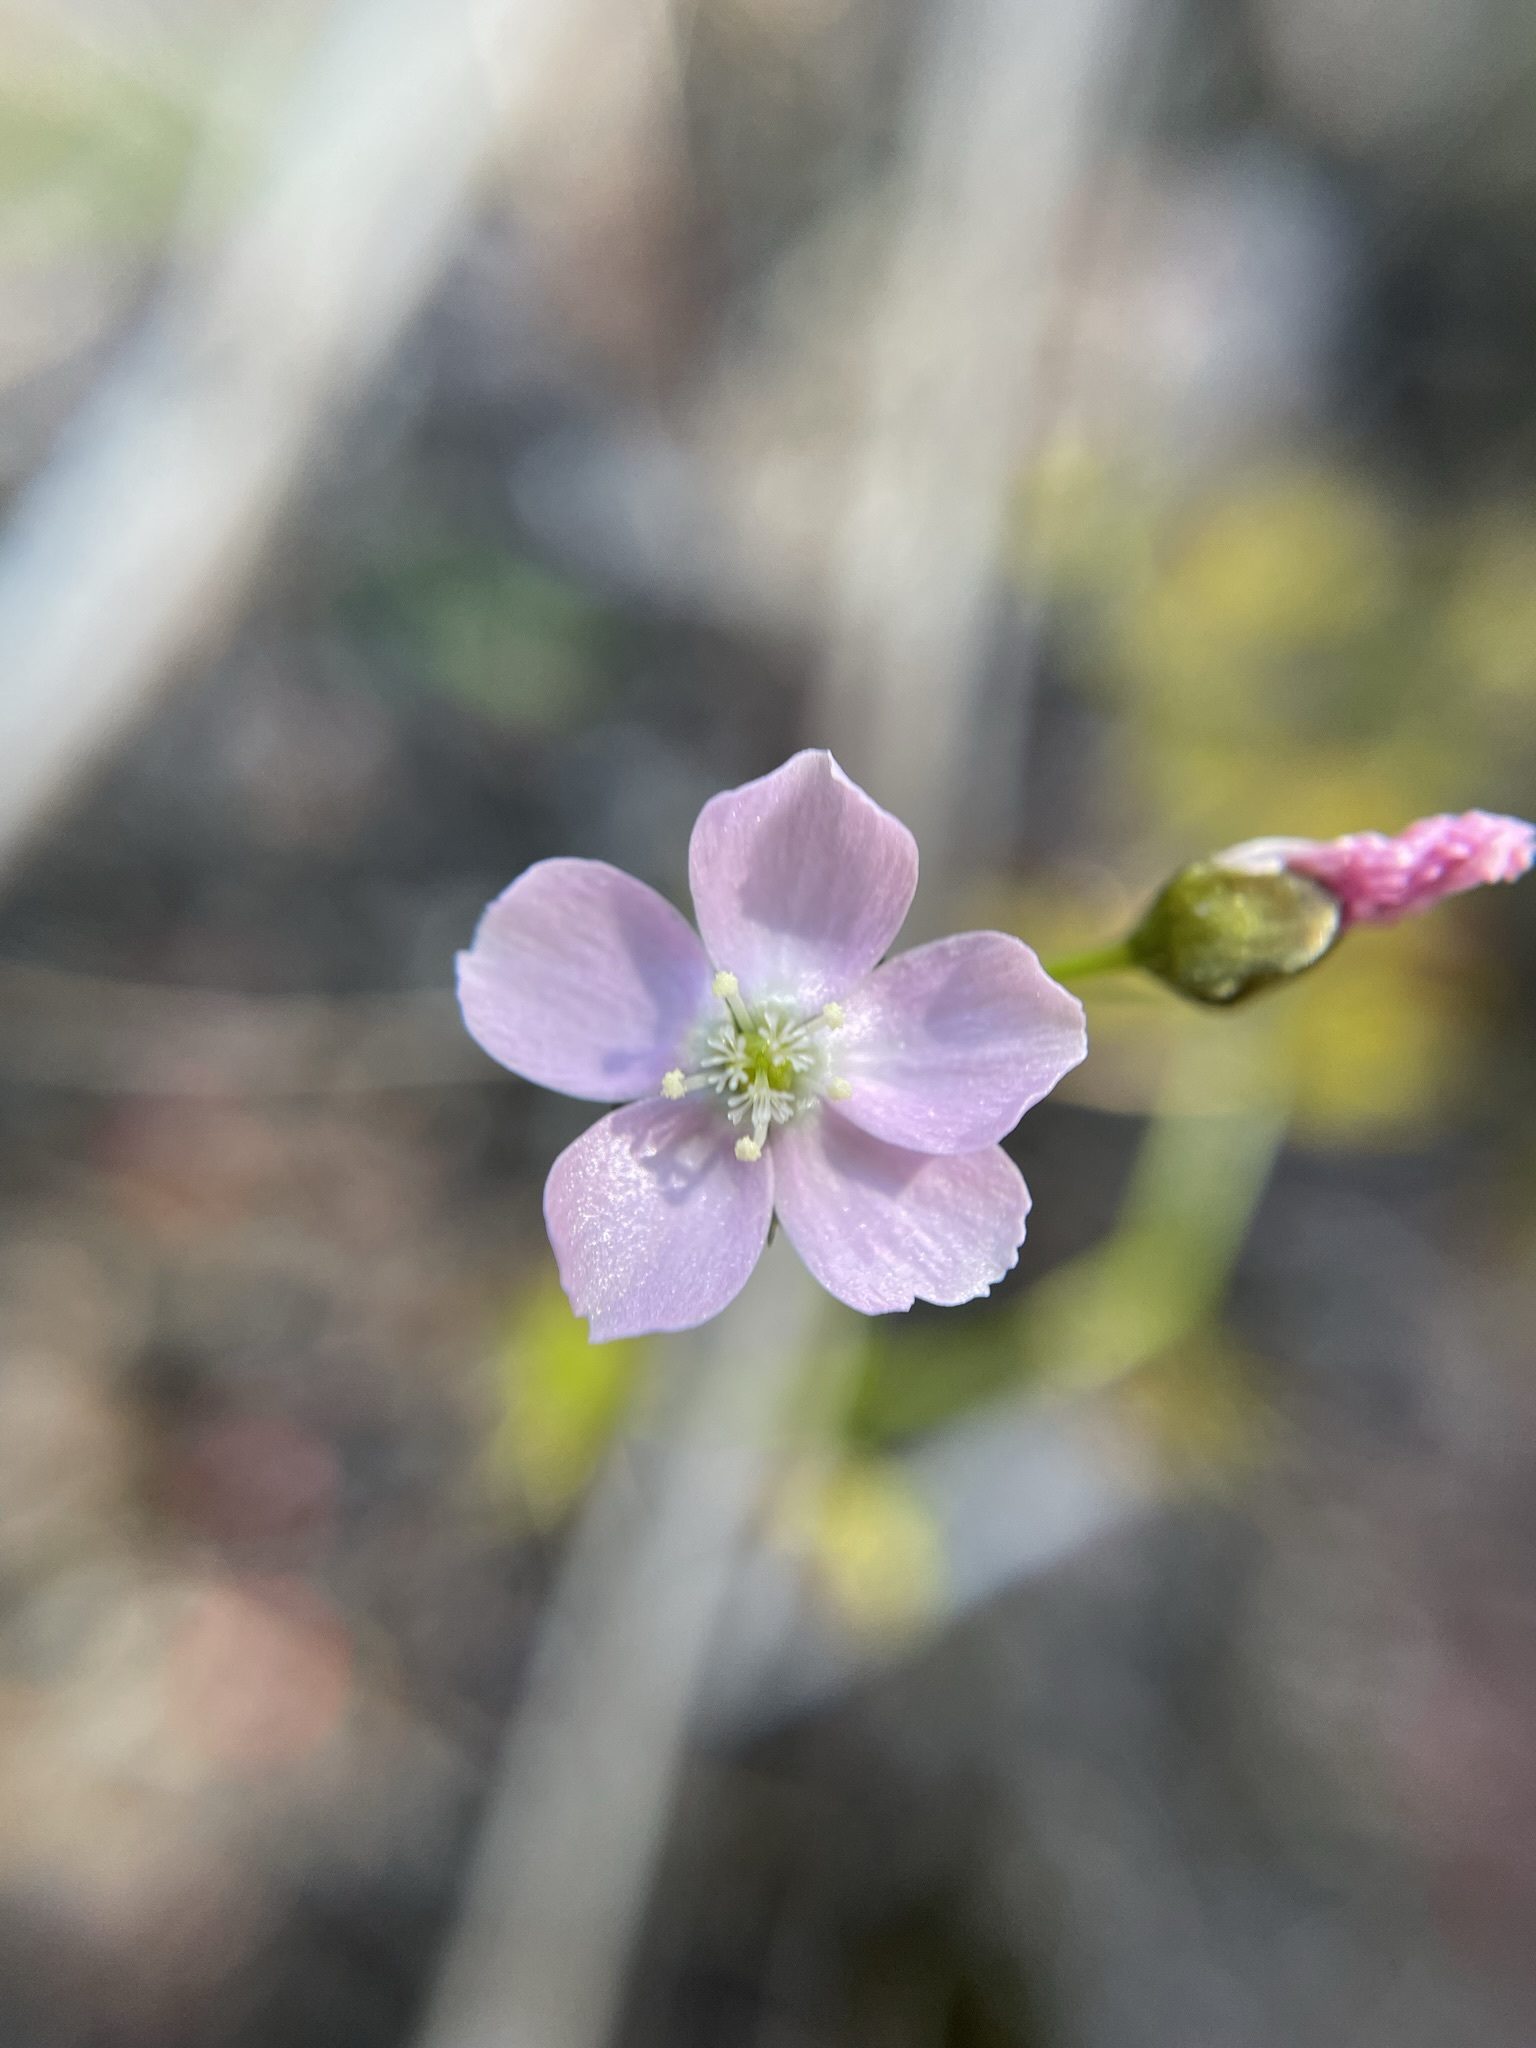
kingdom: Plantae
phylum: Tracheophyta
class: Magnoliopsida
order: Caryophyllales
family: Droseraceae
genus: Drosera
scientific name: Drosera peltata
